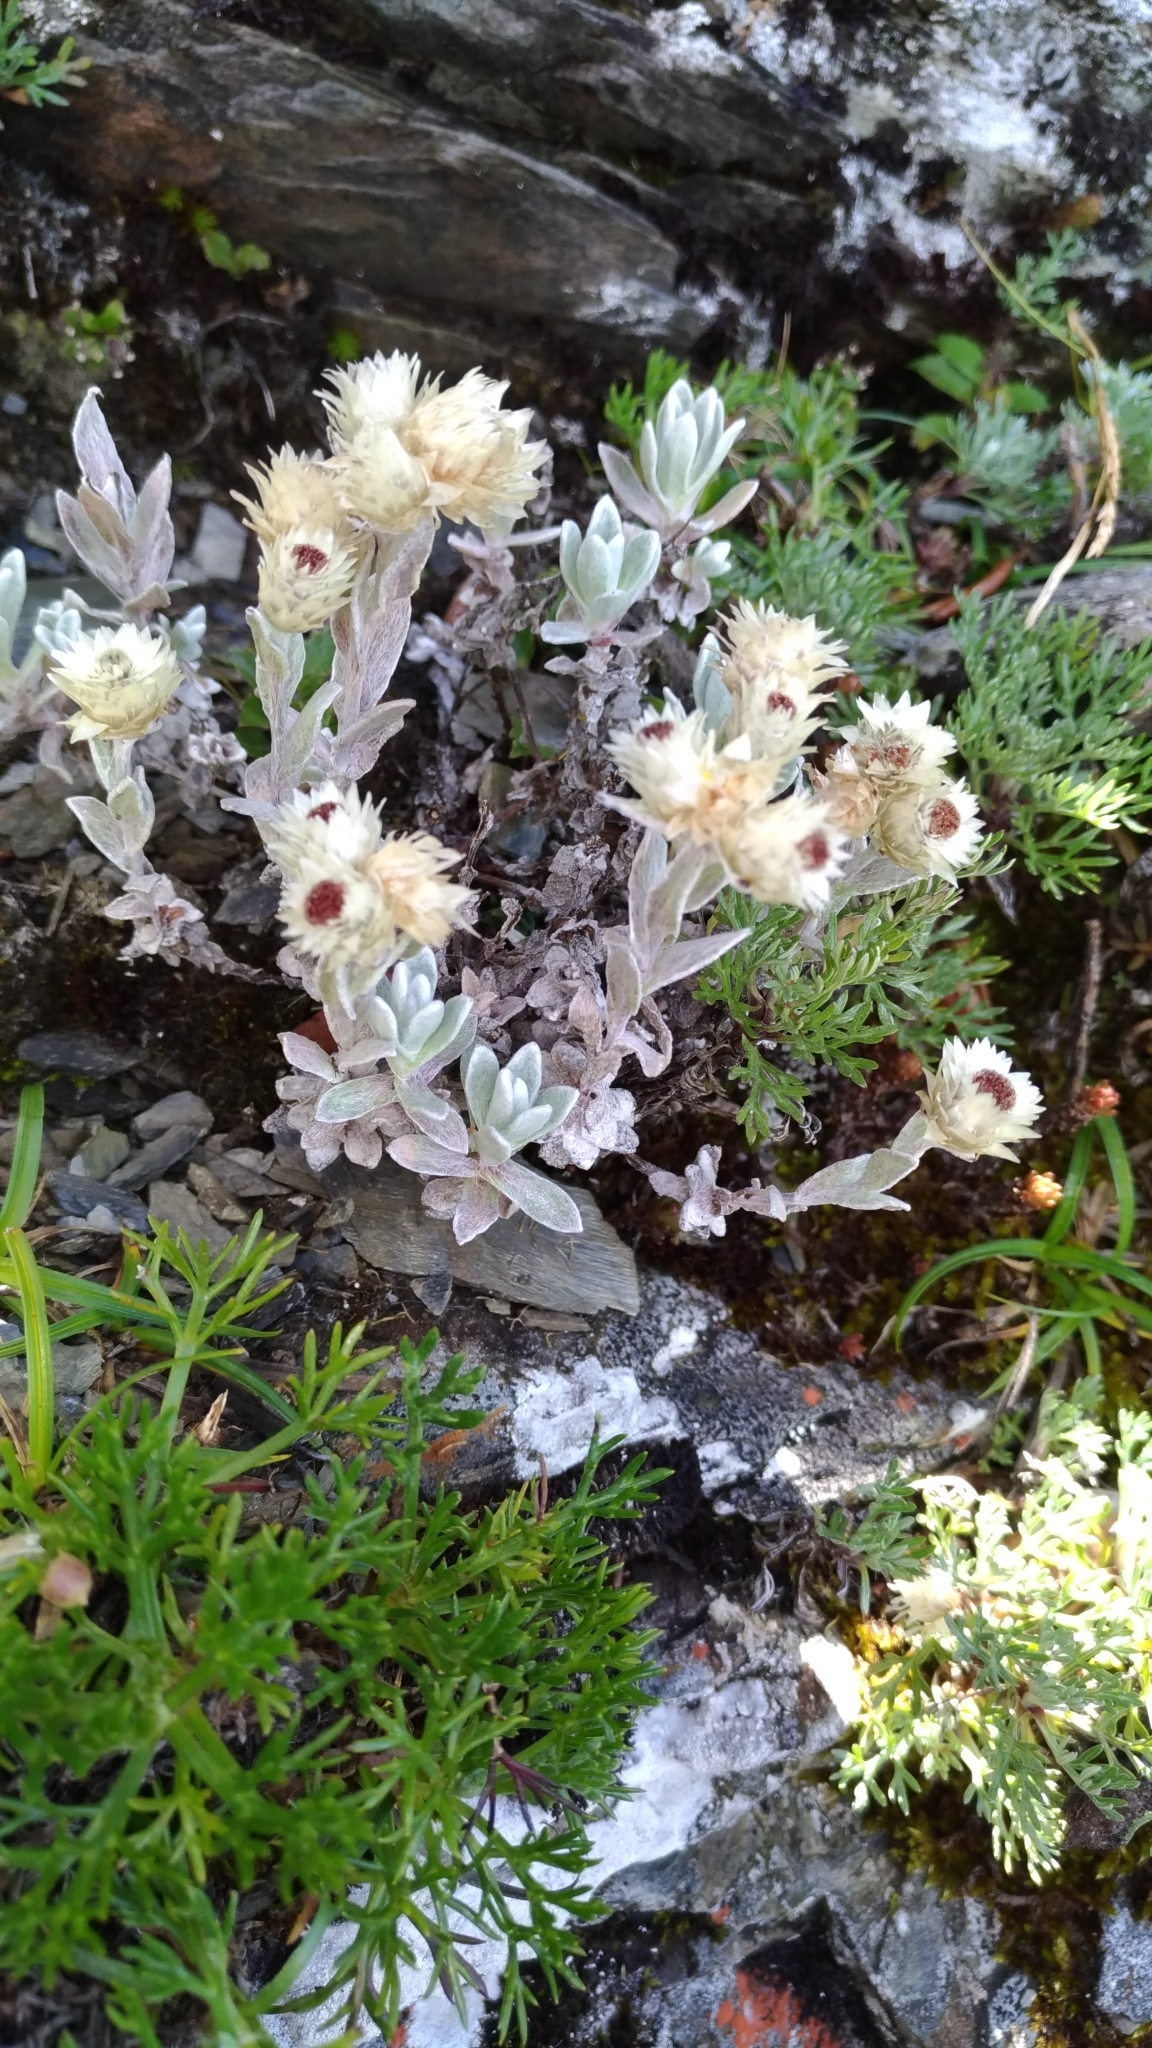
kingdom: Plantae
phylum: Tracheophyta
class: Magnoliopsida
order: Asterales
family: Asteraceae
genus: Anaphalis
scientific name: Anaphalis nepalensis
